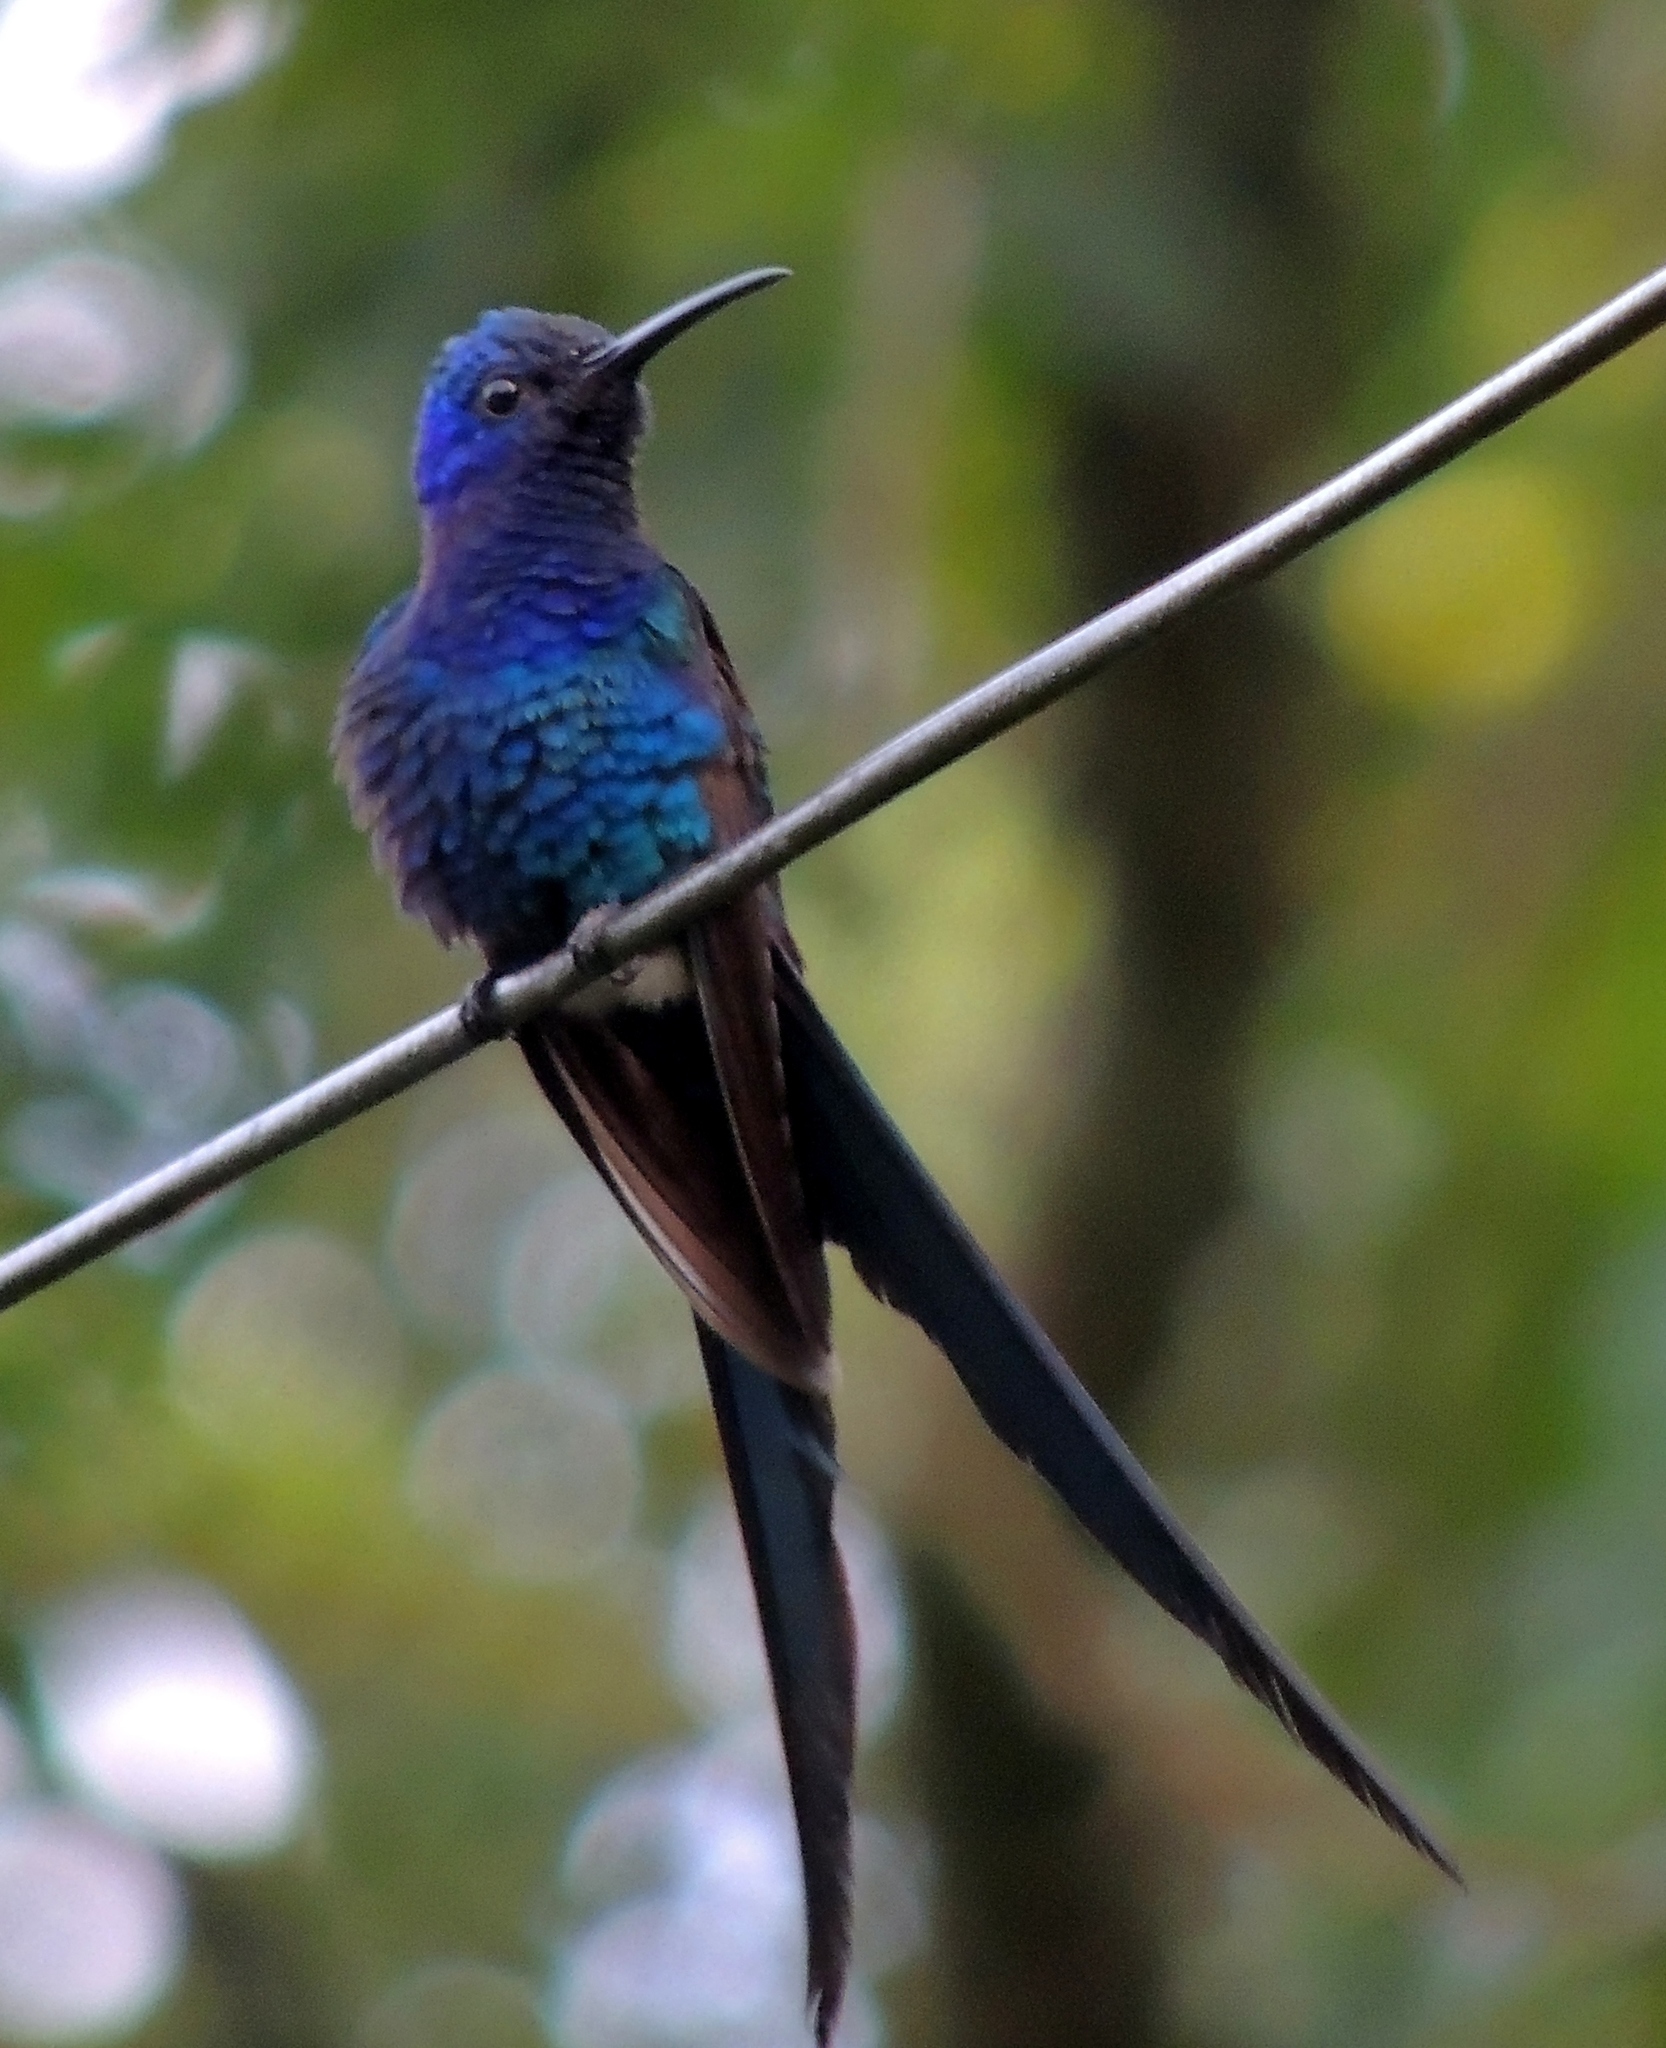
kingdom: Animalia
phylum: Chordata
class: Aves
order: Apodiformes
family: Trochilidae
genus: Eupetomena
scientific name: Eupetomena macroura
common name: Swallow-tailed hummingbird
